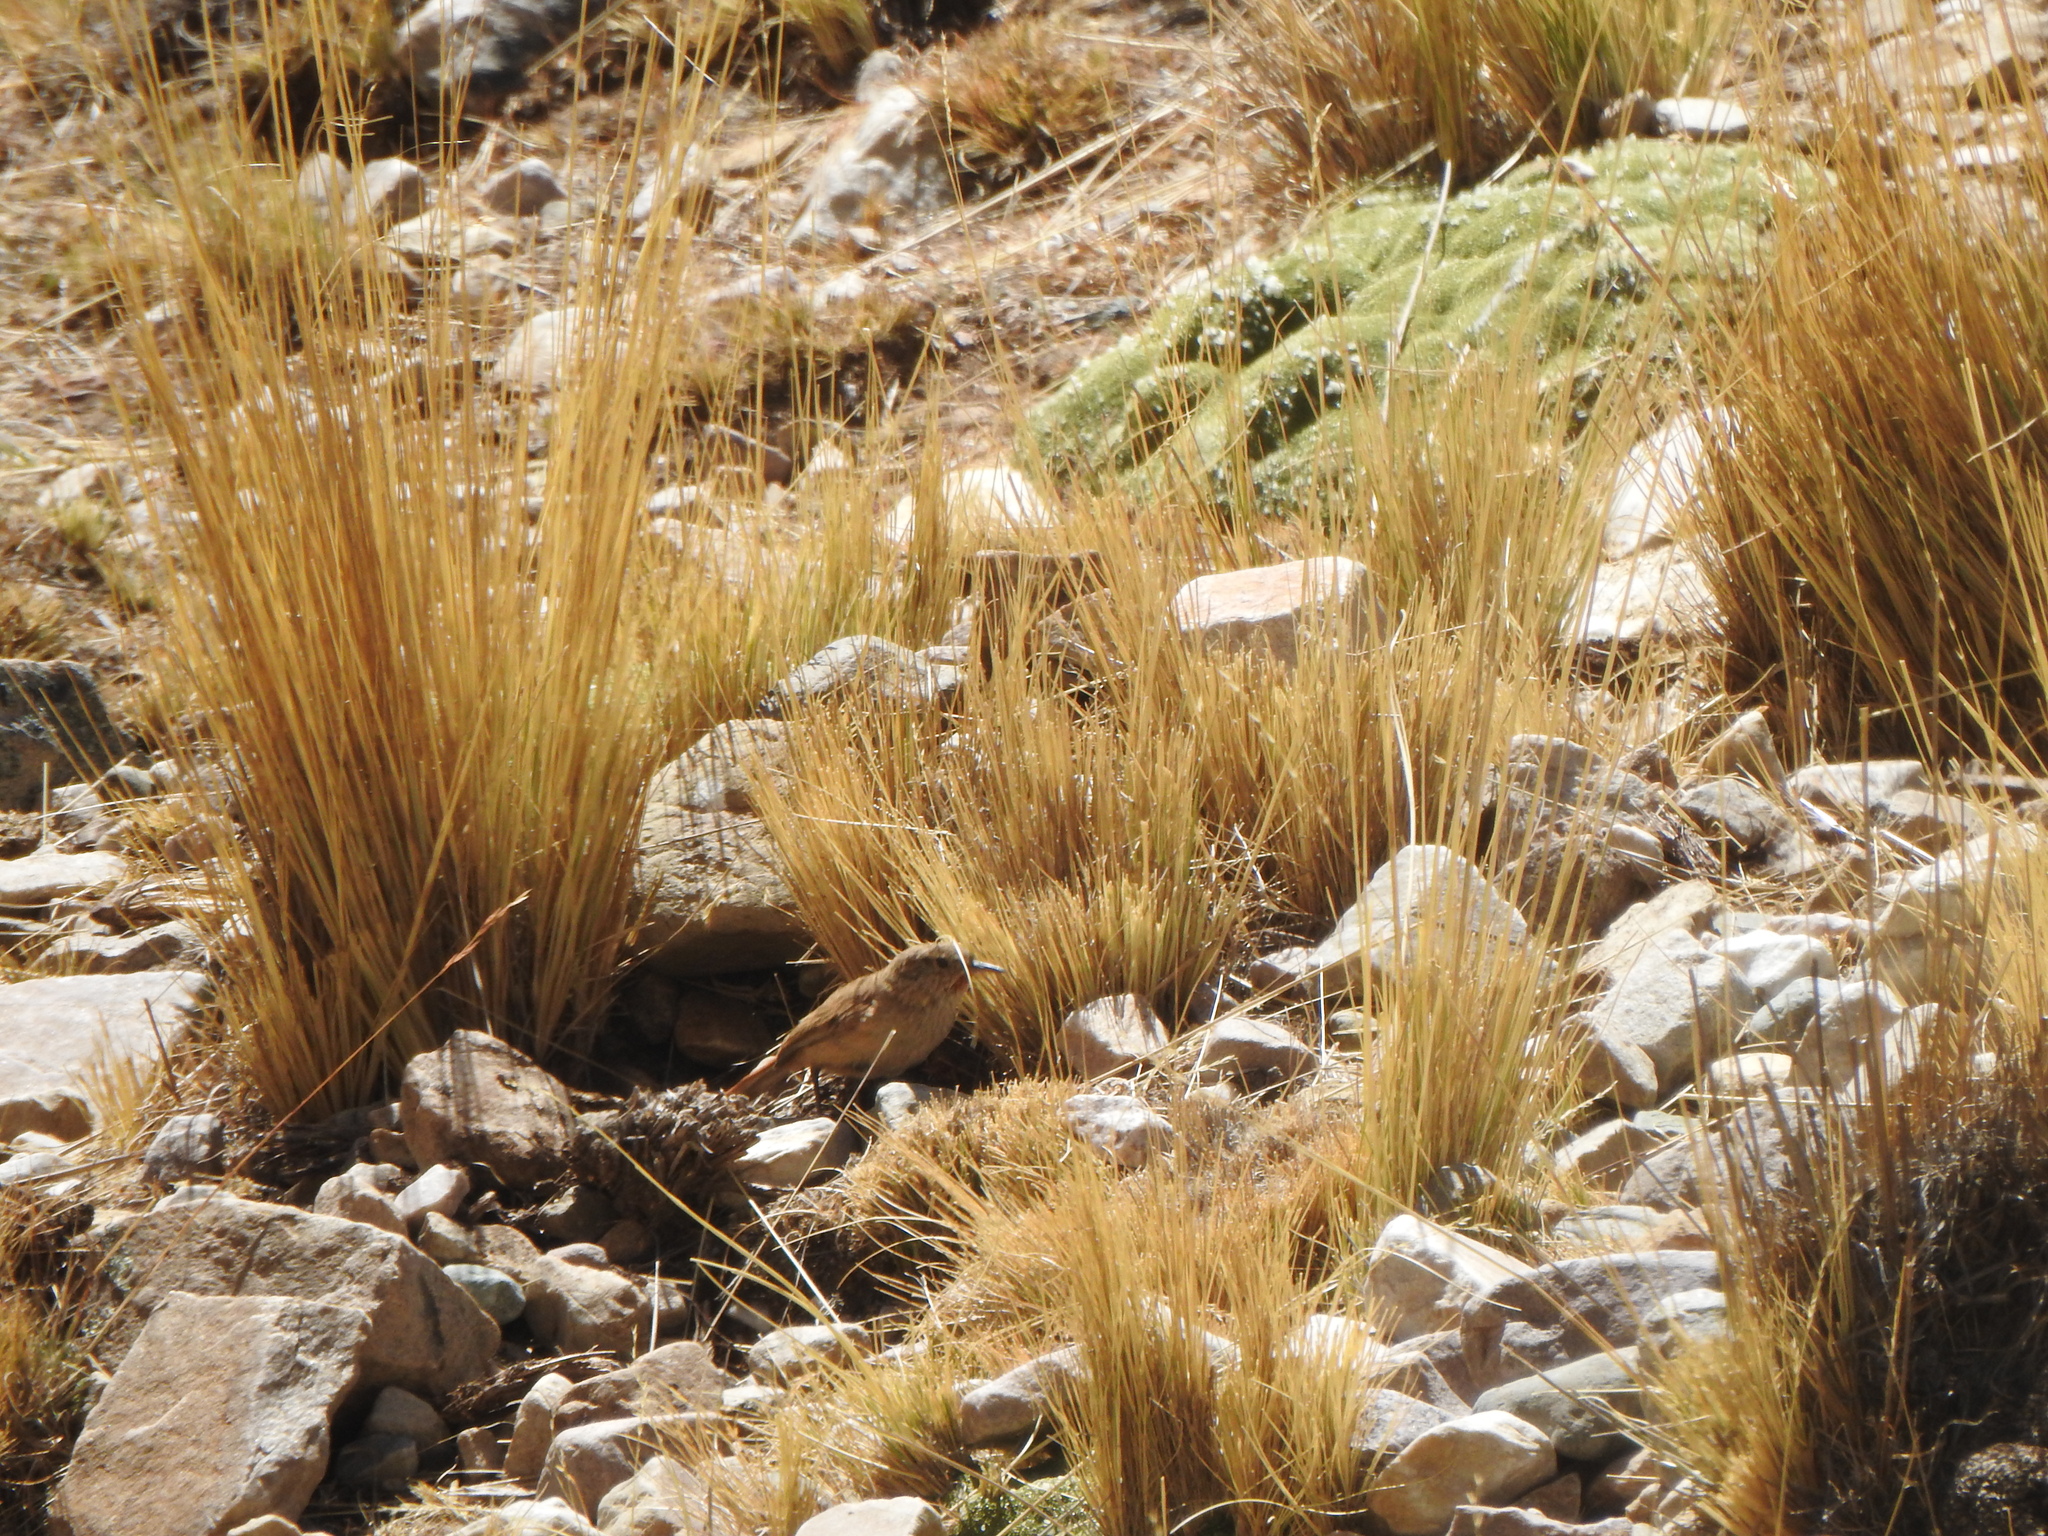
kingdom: Animalia
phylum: Chordata
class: Aves
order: Passeriformes
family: Furnariidae
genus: Asthenes
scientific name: Asthenes modesta
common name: Cordilleran canastero
